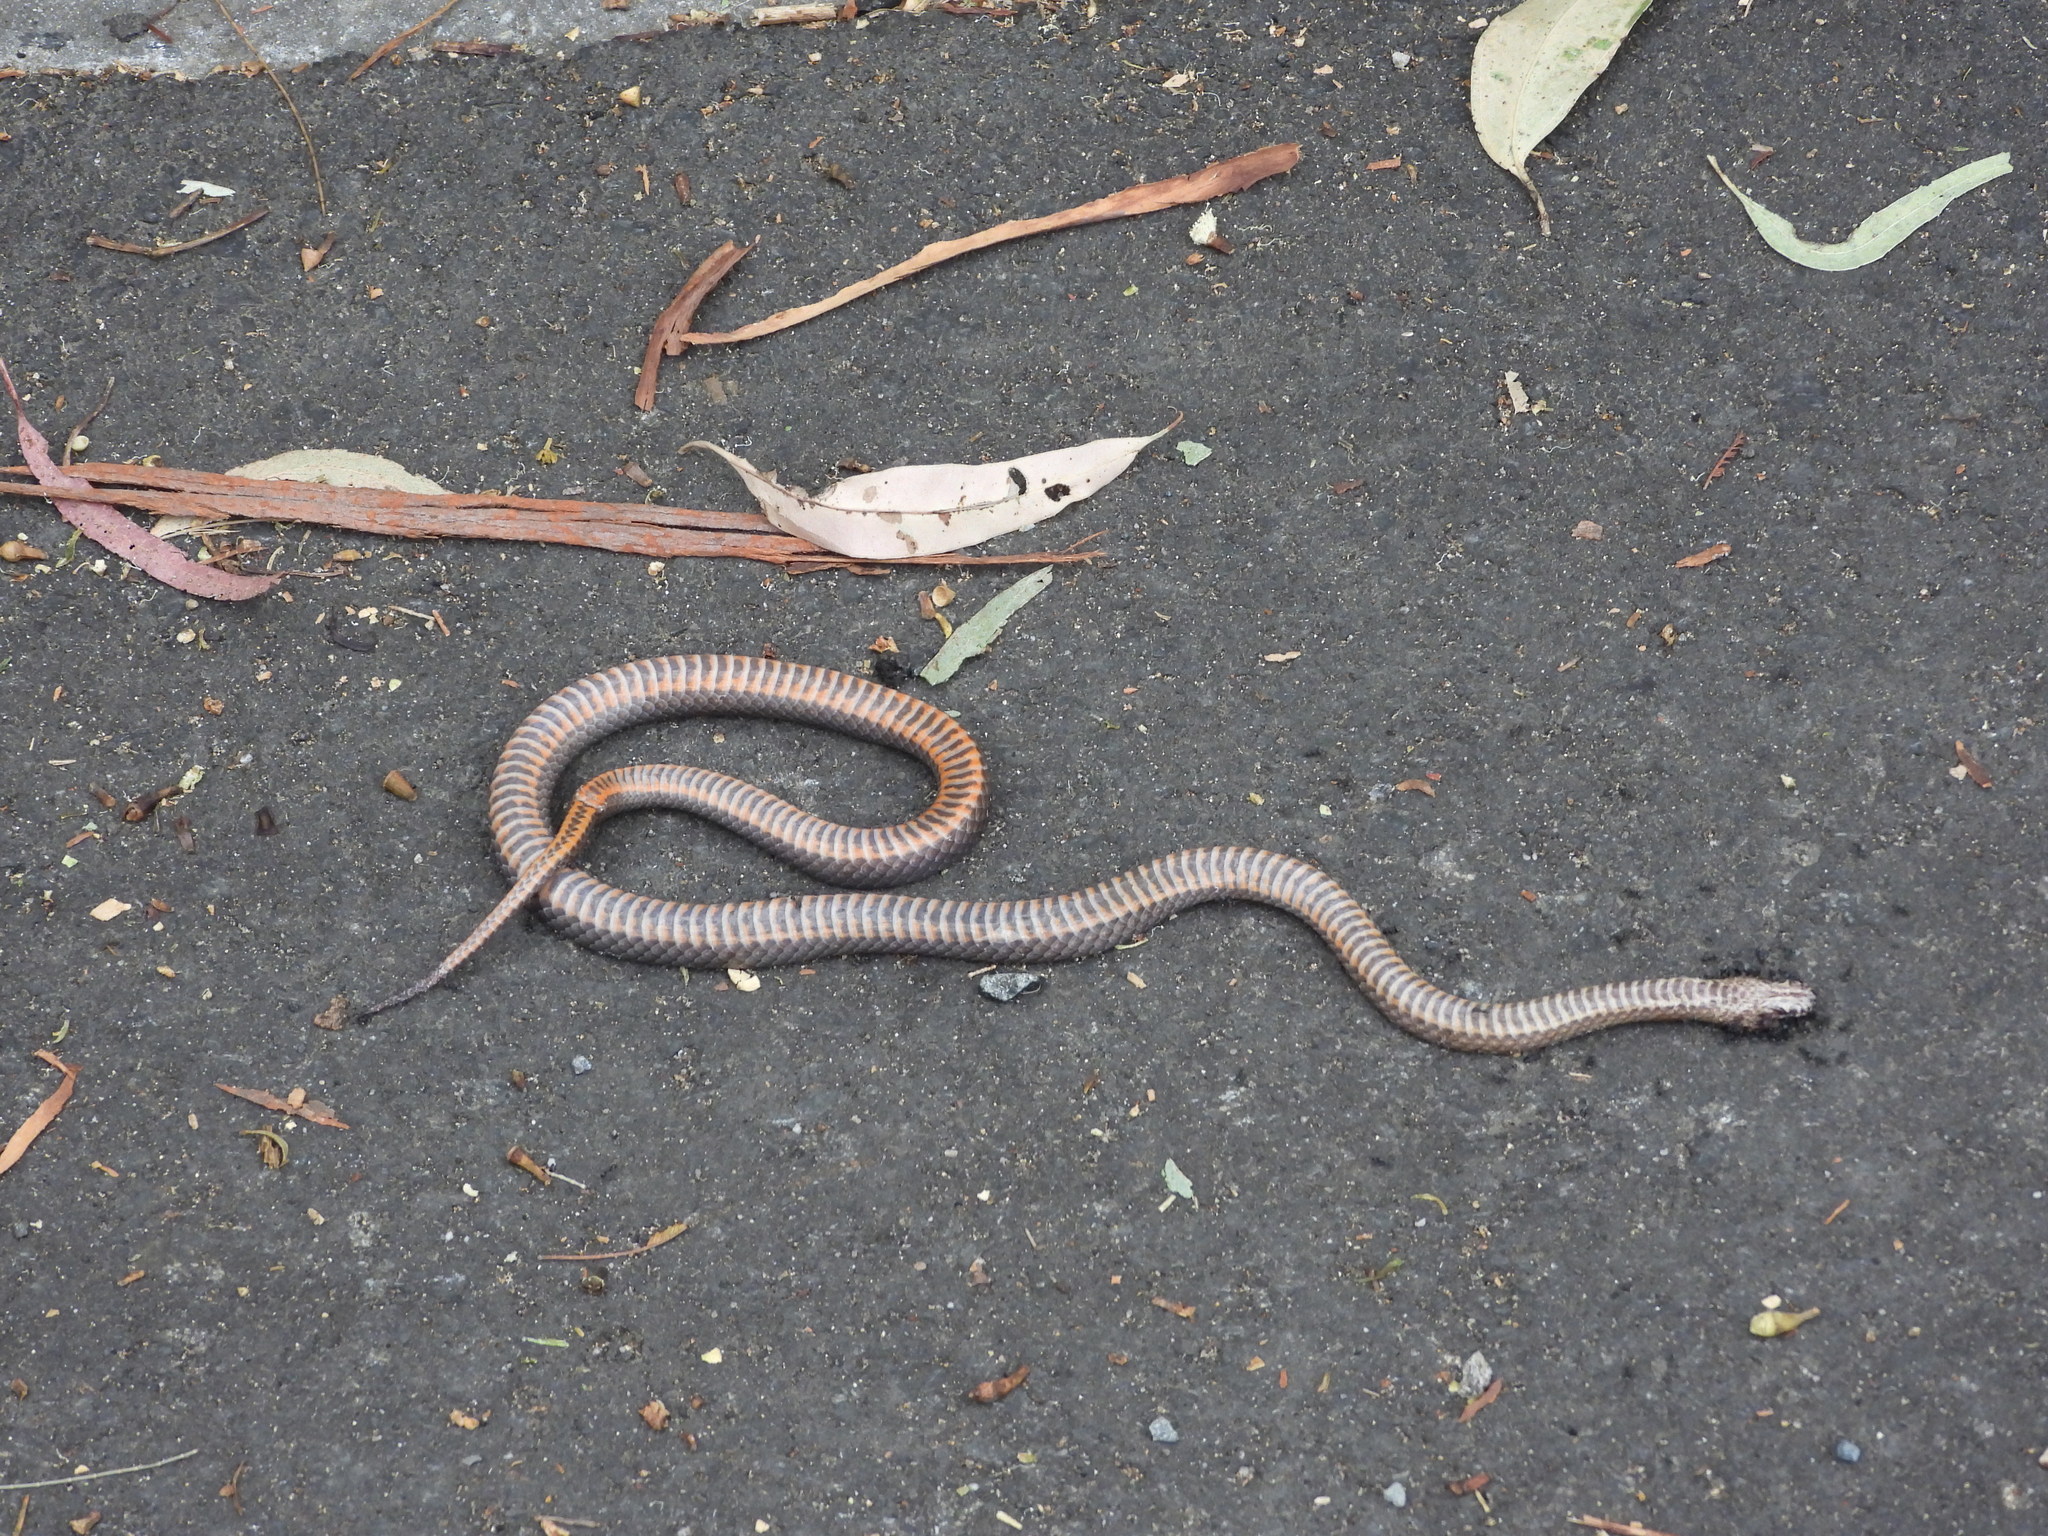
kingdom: Animalia
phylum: Chordata
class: Squamata
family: Elapidae
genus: Cacophis
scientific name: Cacophis squamulosus
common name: Golden crowned snake
